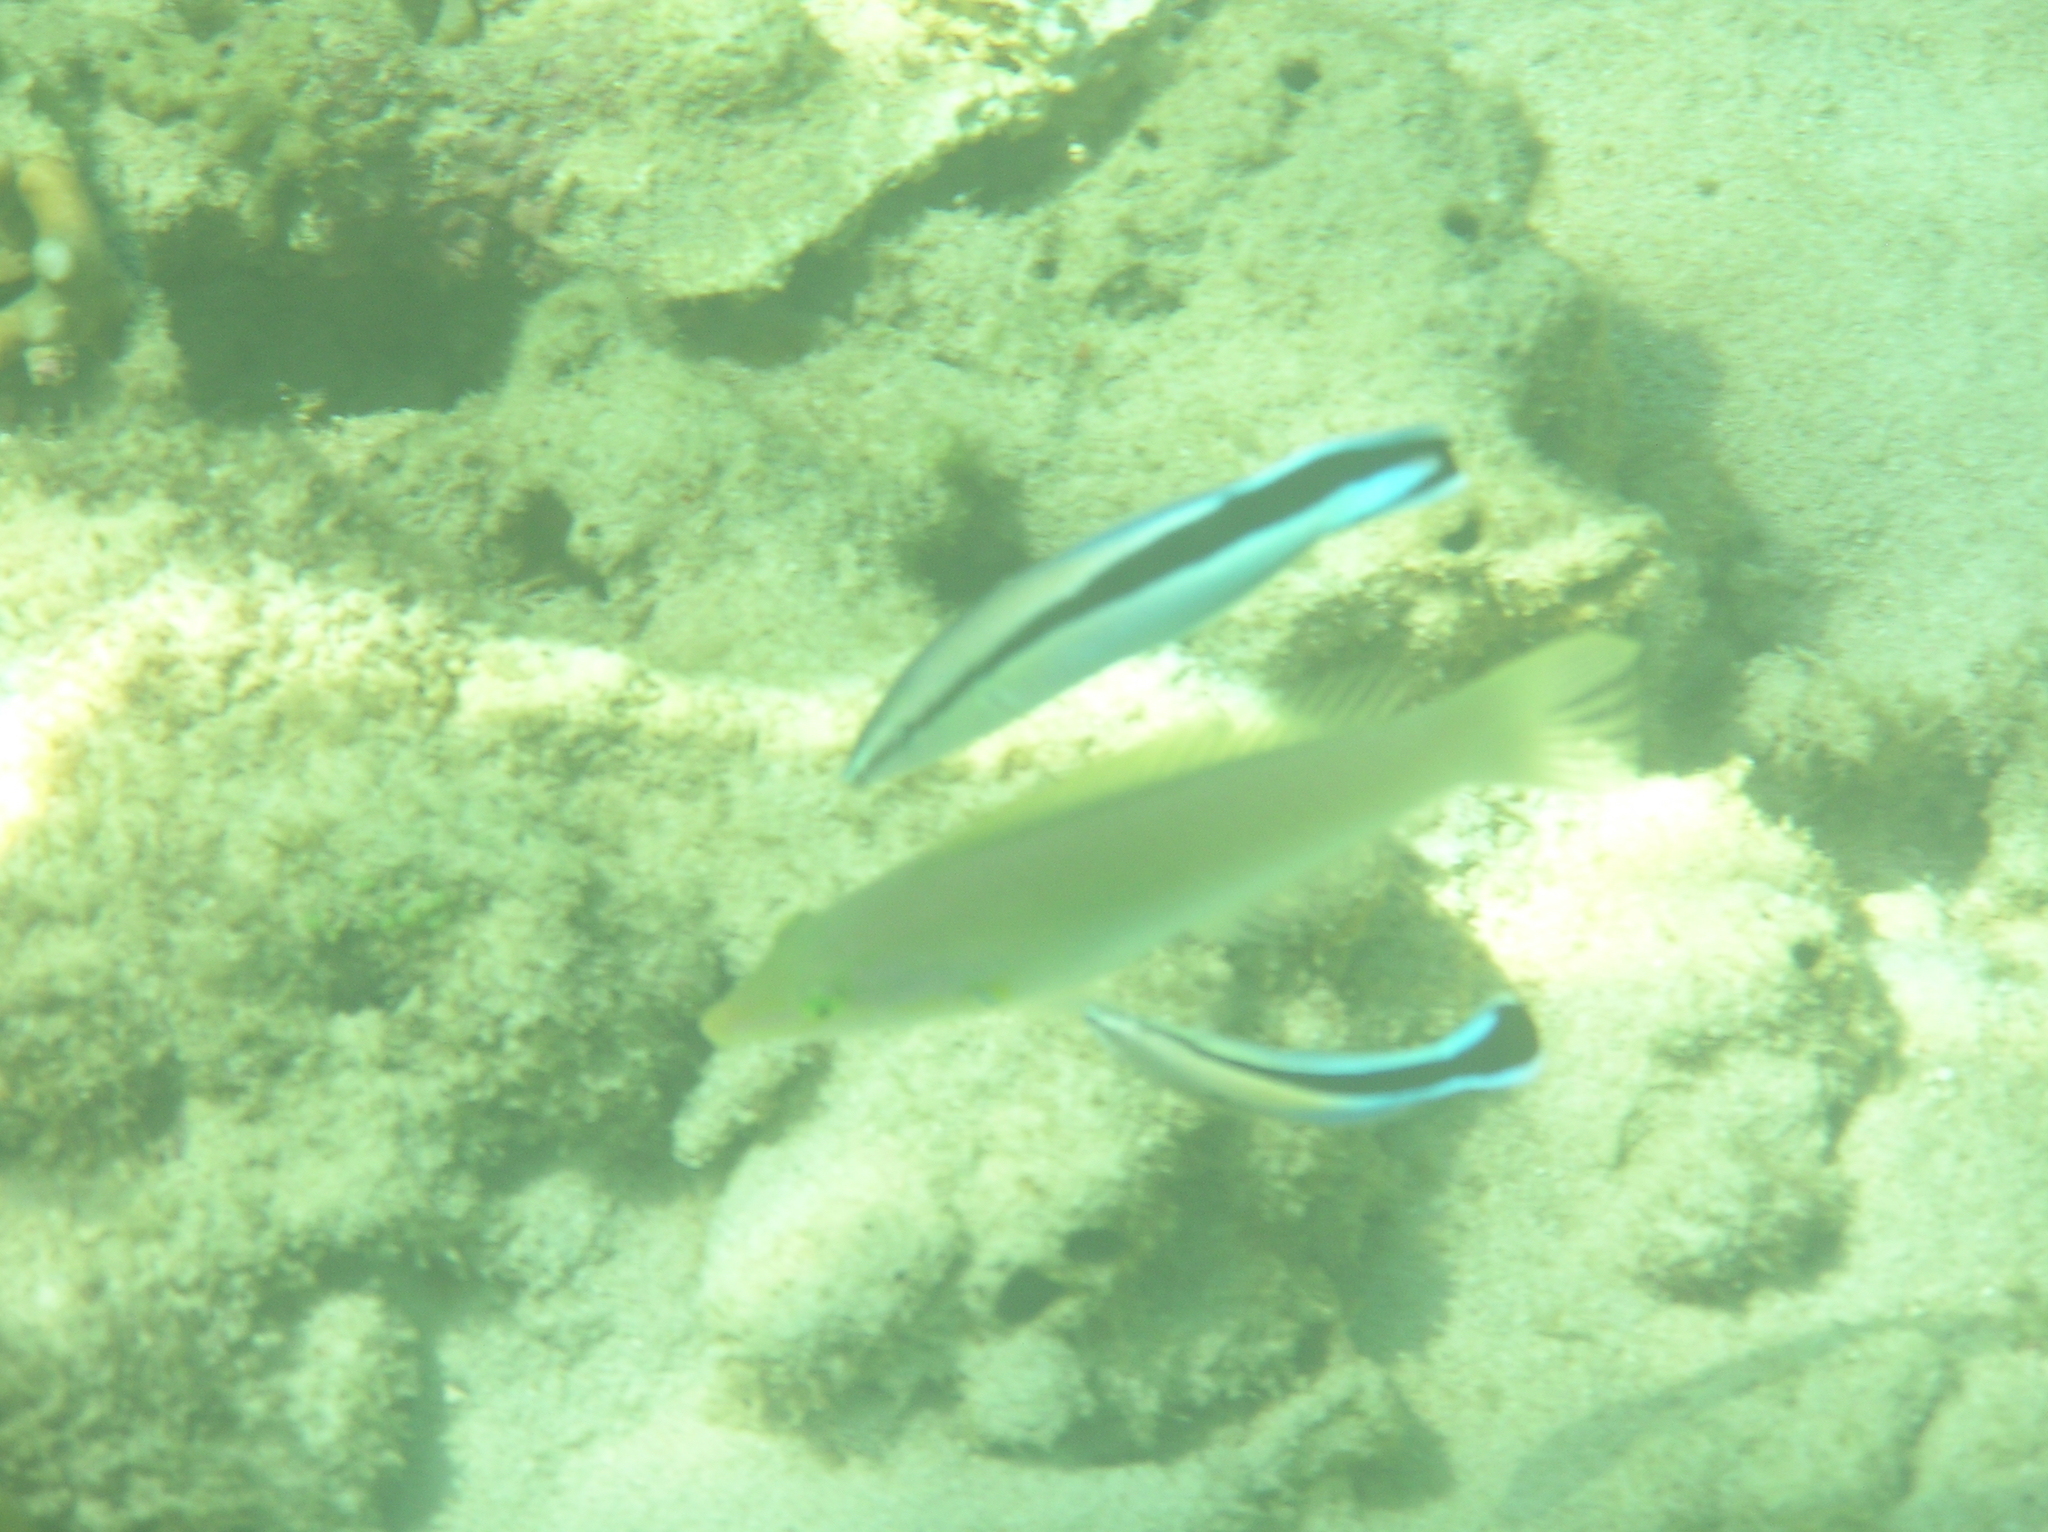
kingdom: Animalia
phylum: Chordata
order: Perciformes
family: Labridae
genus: Labroides
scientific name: Labroides dimidiatus
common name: Blue diesel wrasse
